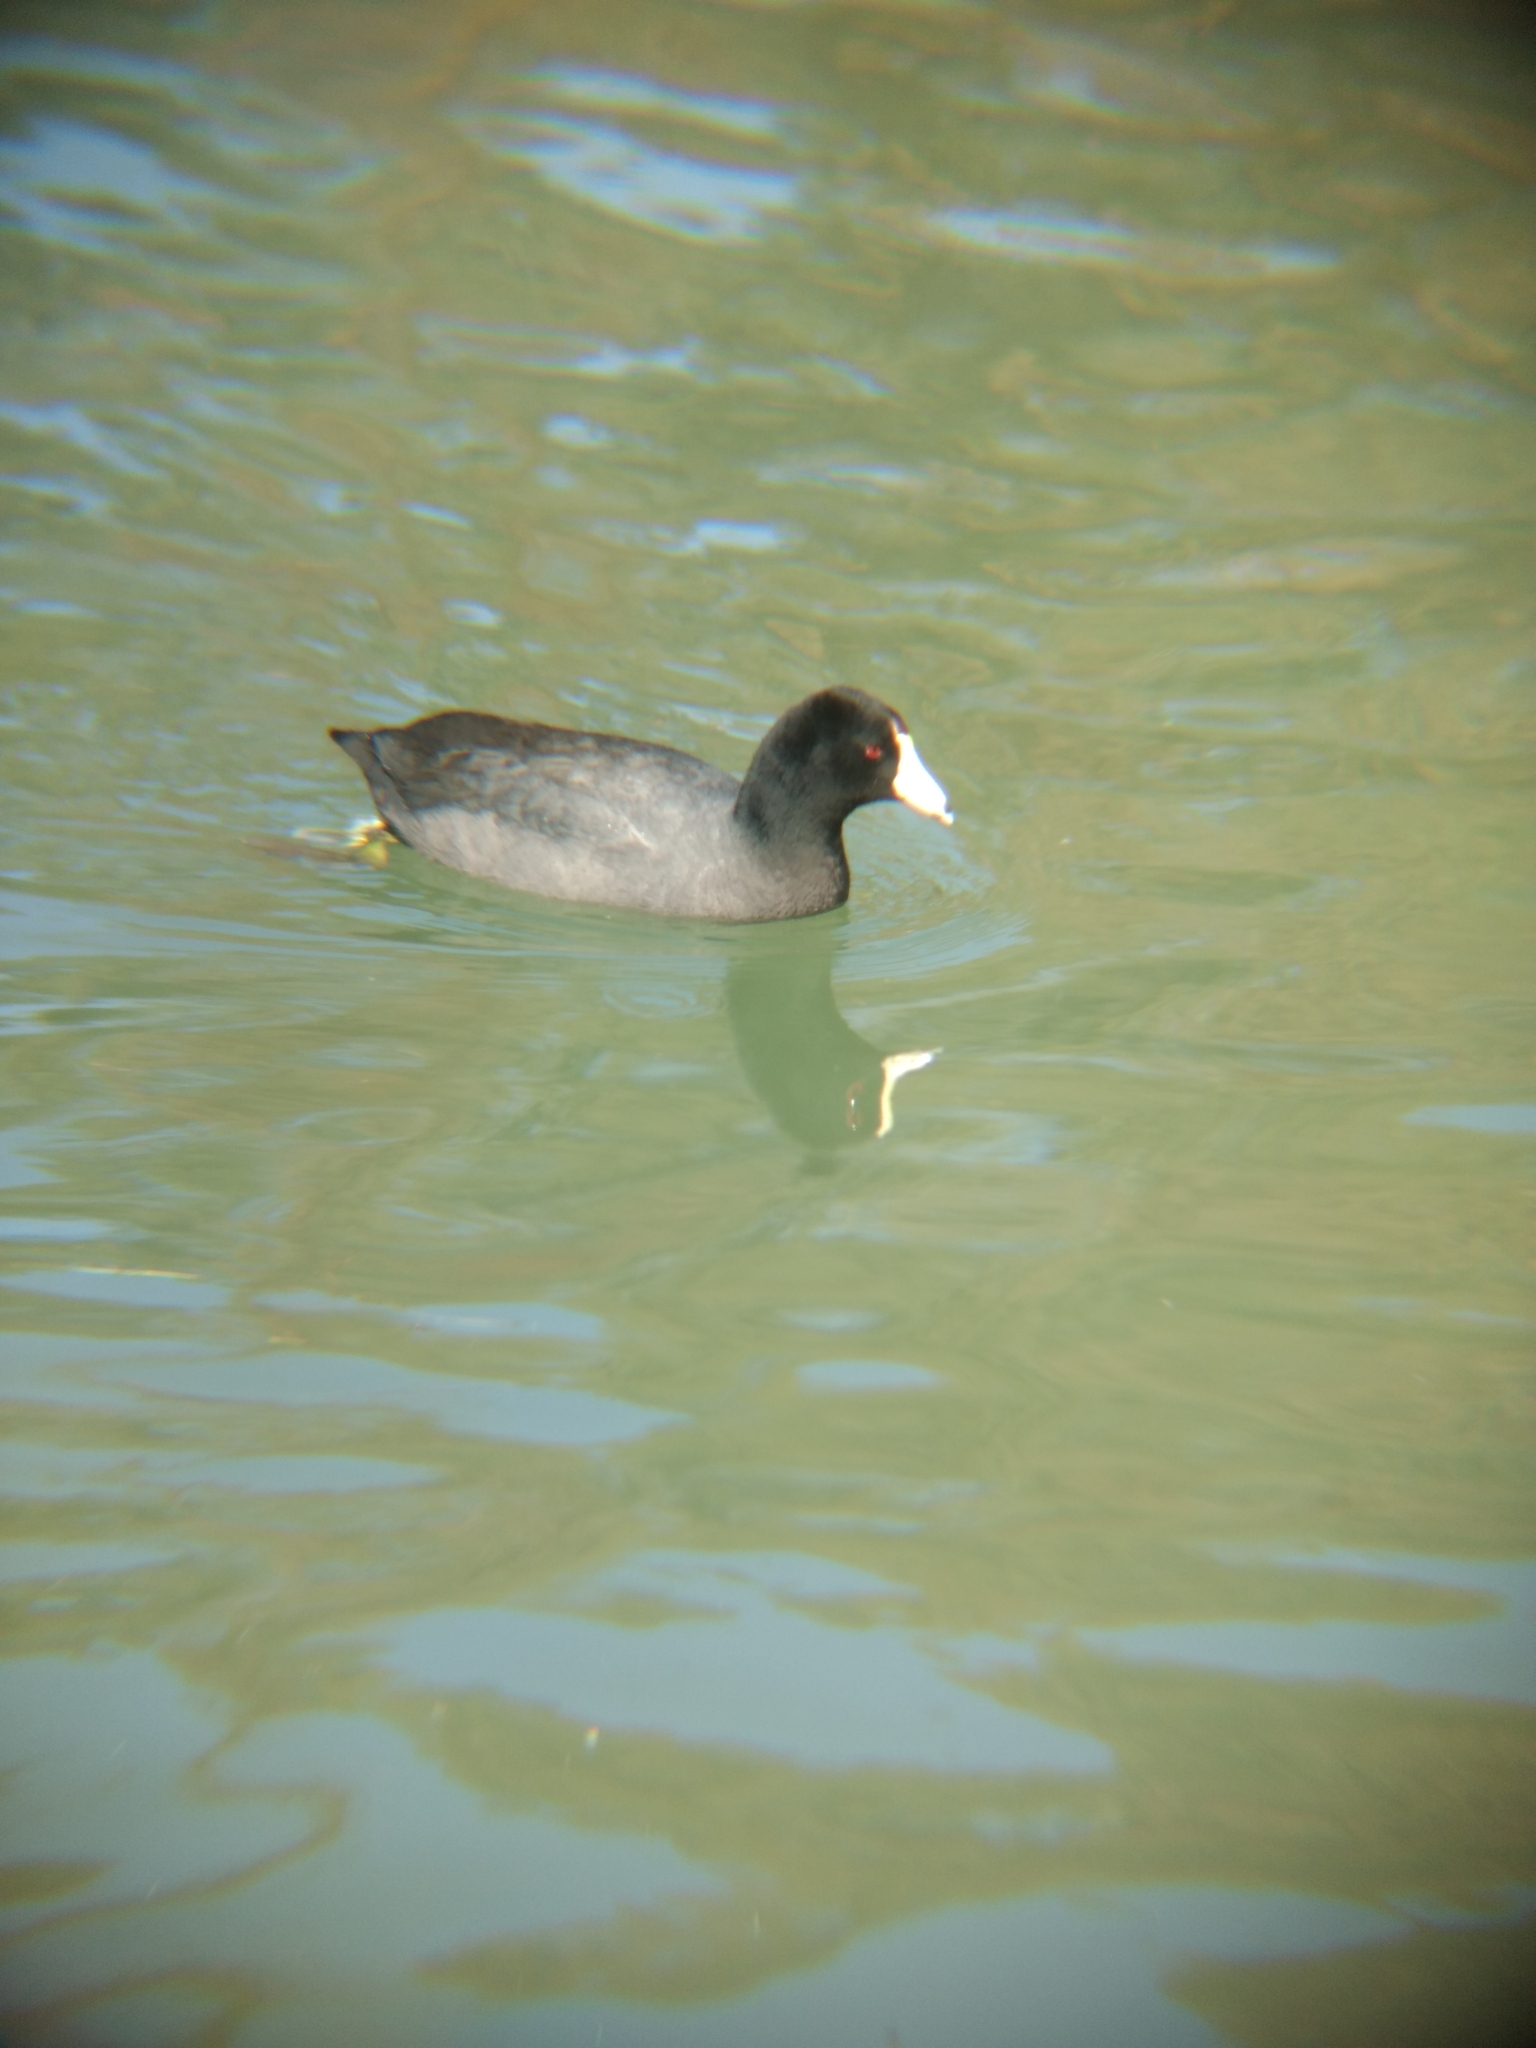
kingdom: Animalia
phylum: Chordata
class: Aves
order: Gruiformes
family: Rallidae
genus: Fulica
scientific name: Fulica americana
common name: American coot
